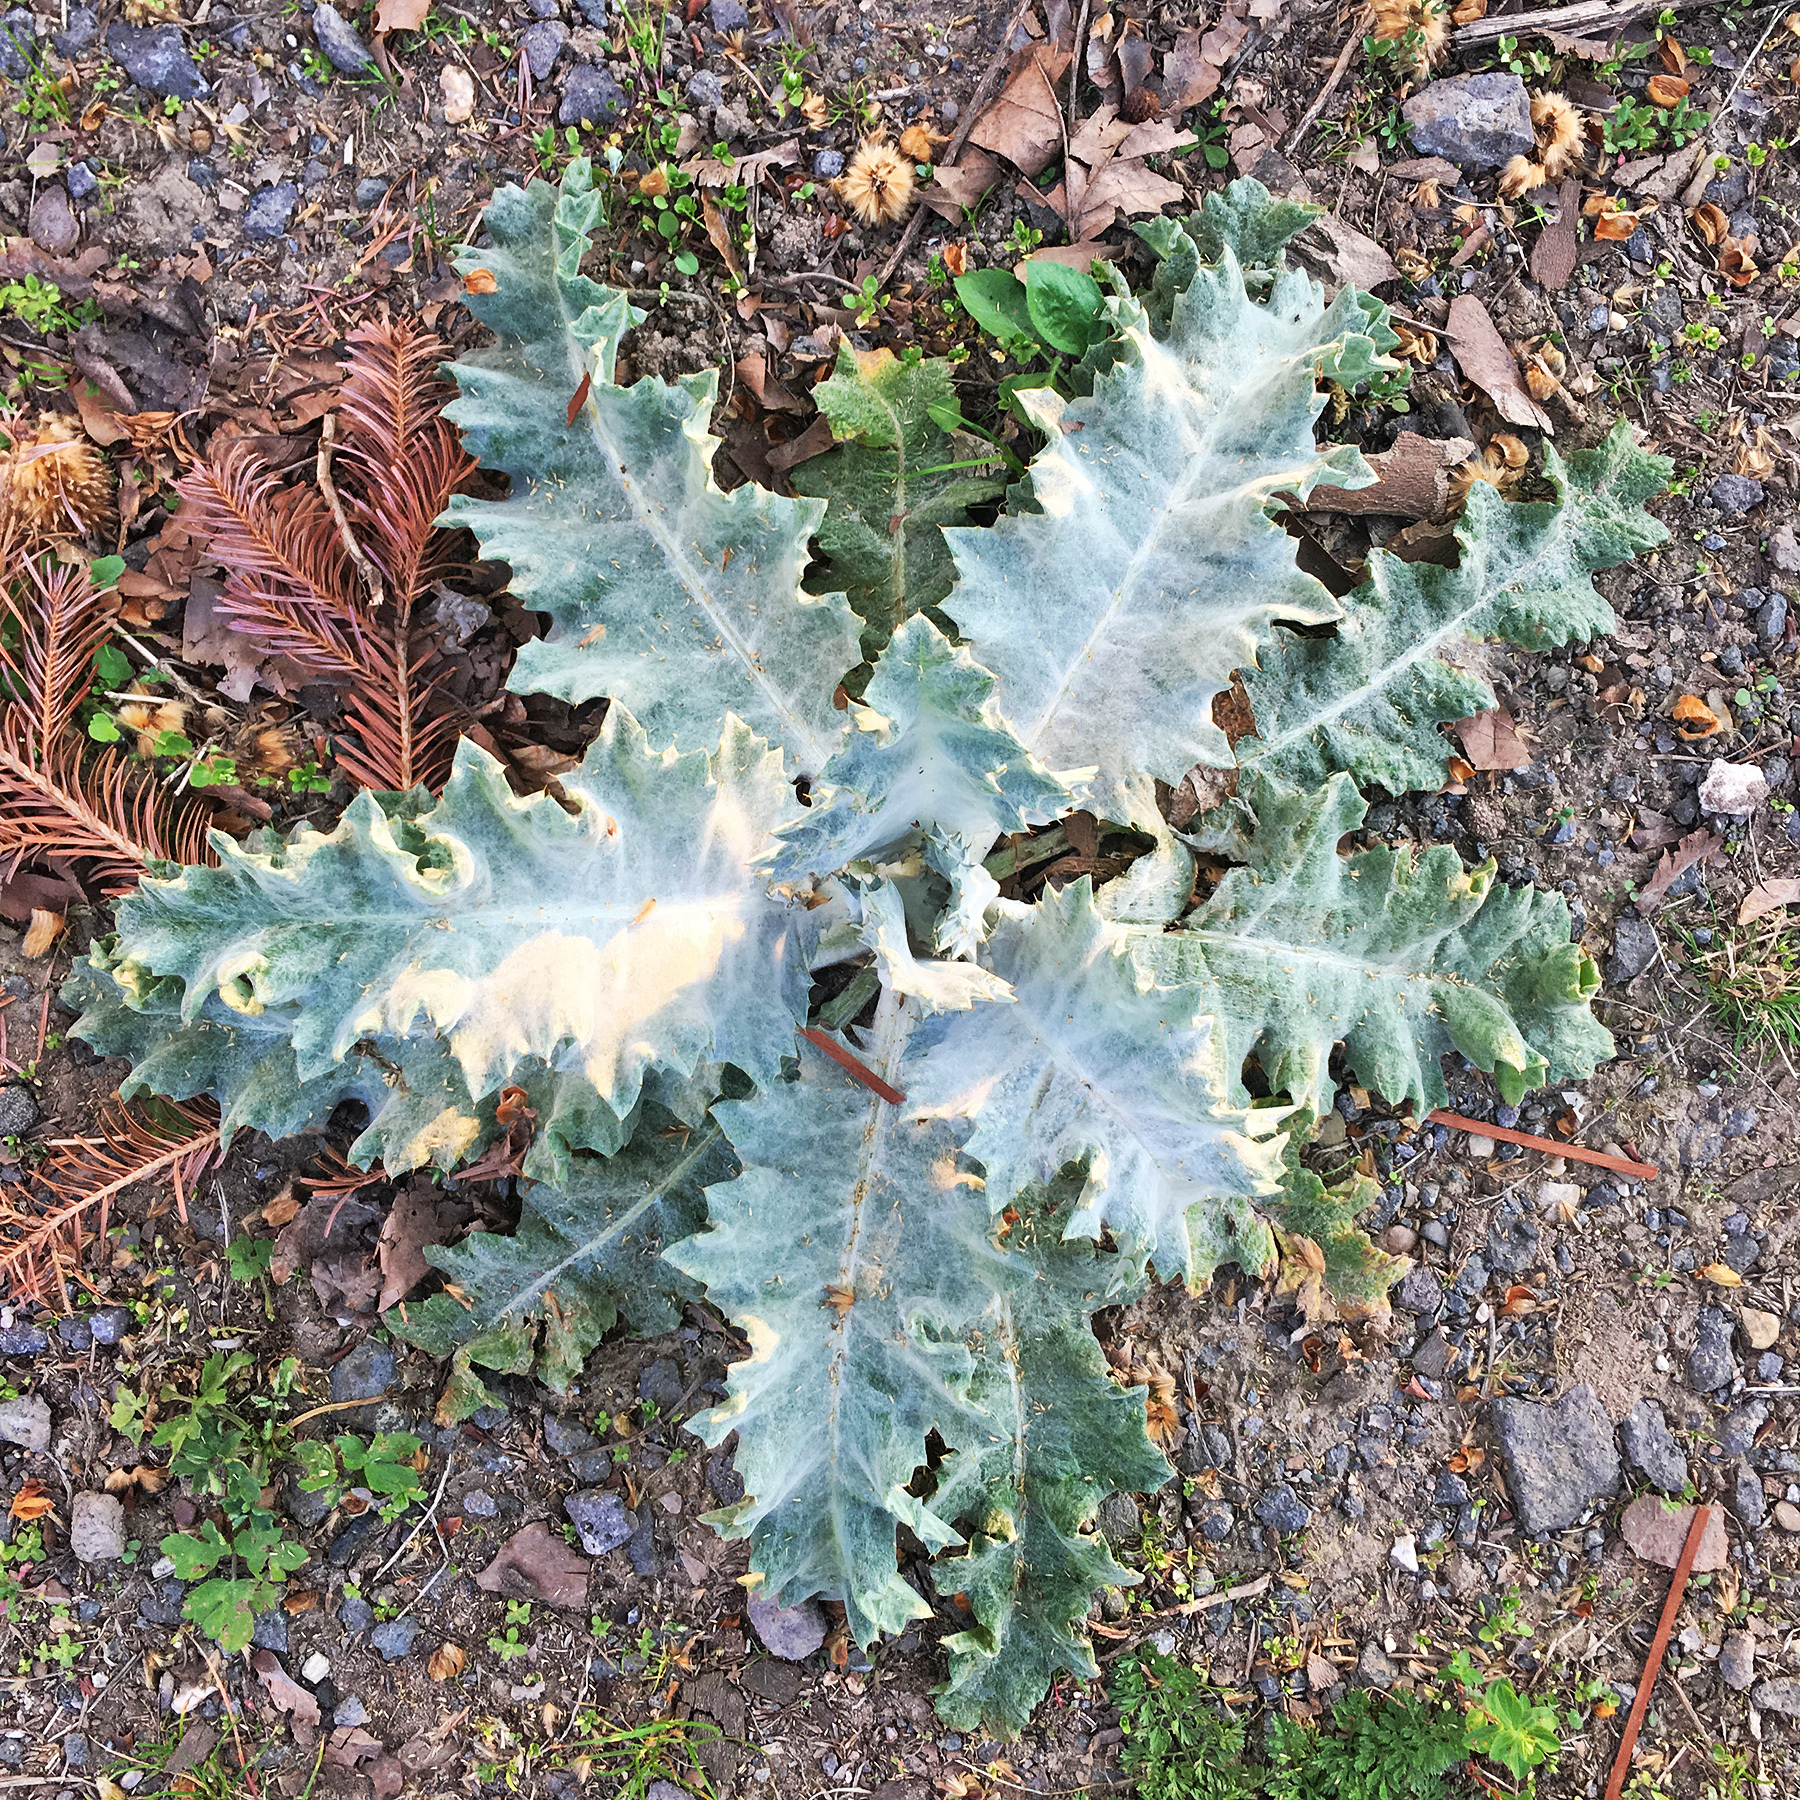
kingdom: Plantae
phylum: Tracheophyta
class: Magnoliopsida
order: Asterales
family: Asteraceae
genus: Onopordum
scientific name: Onopordum acanthium
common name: Scotch thistle
